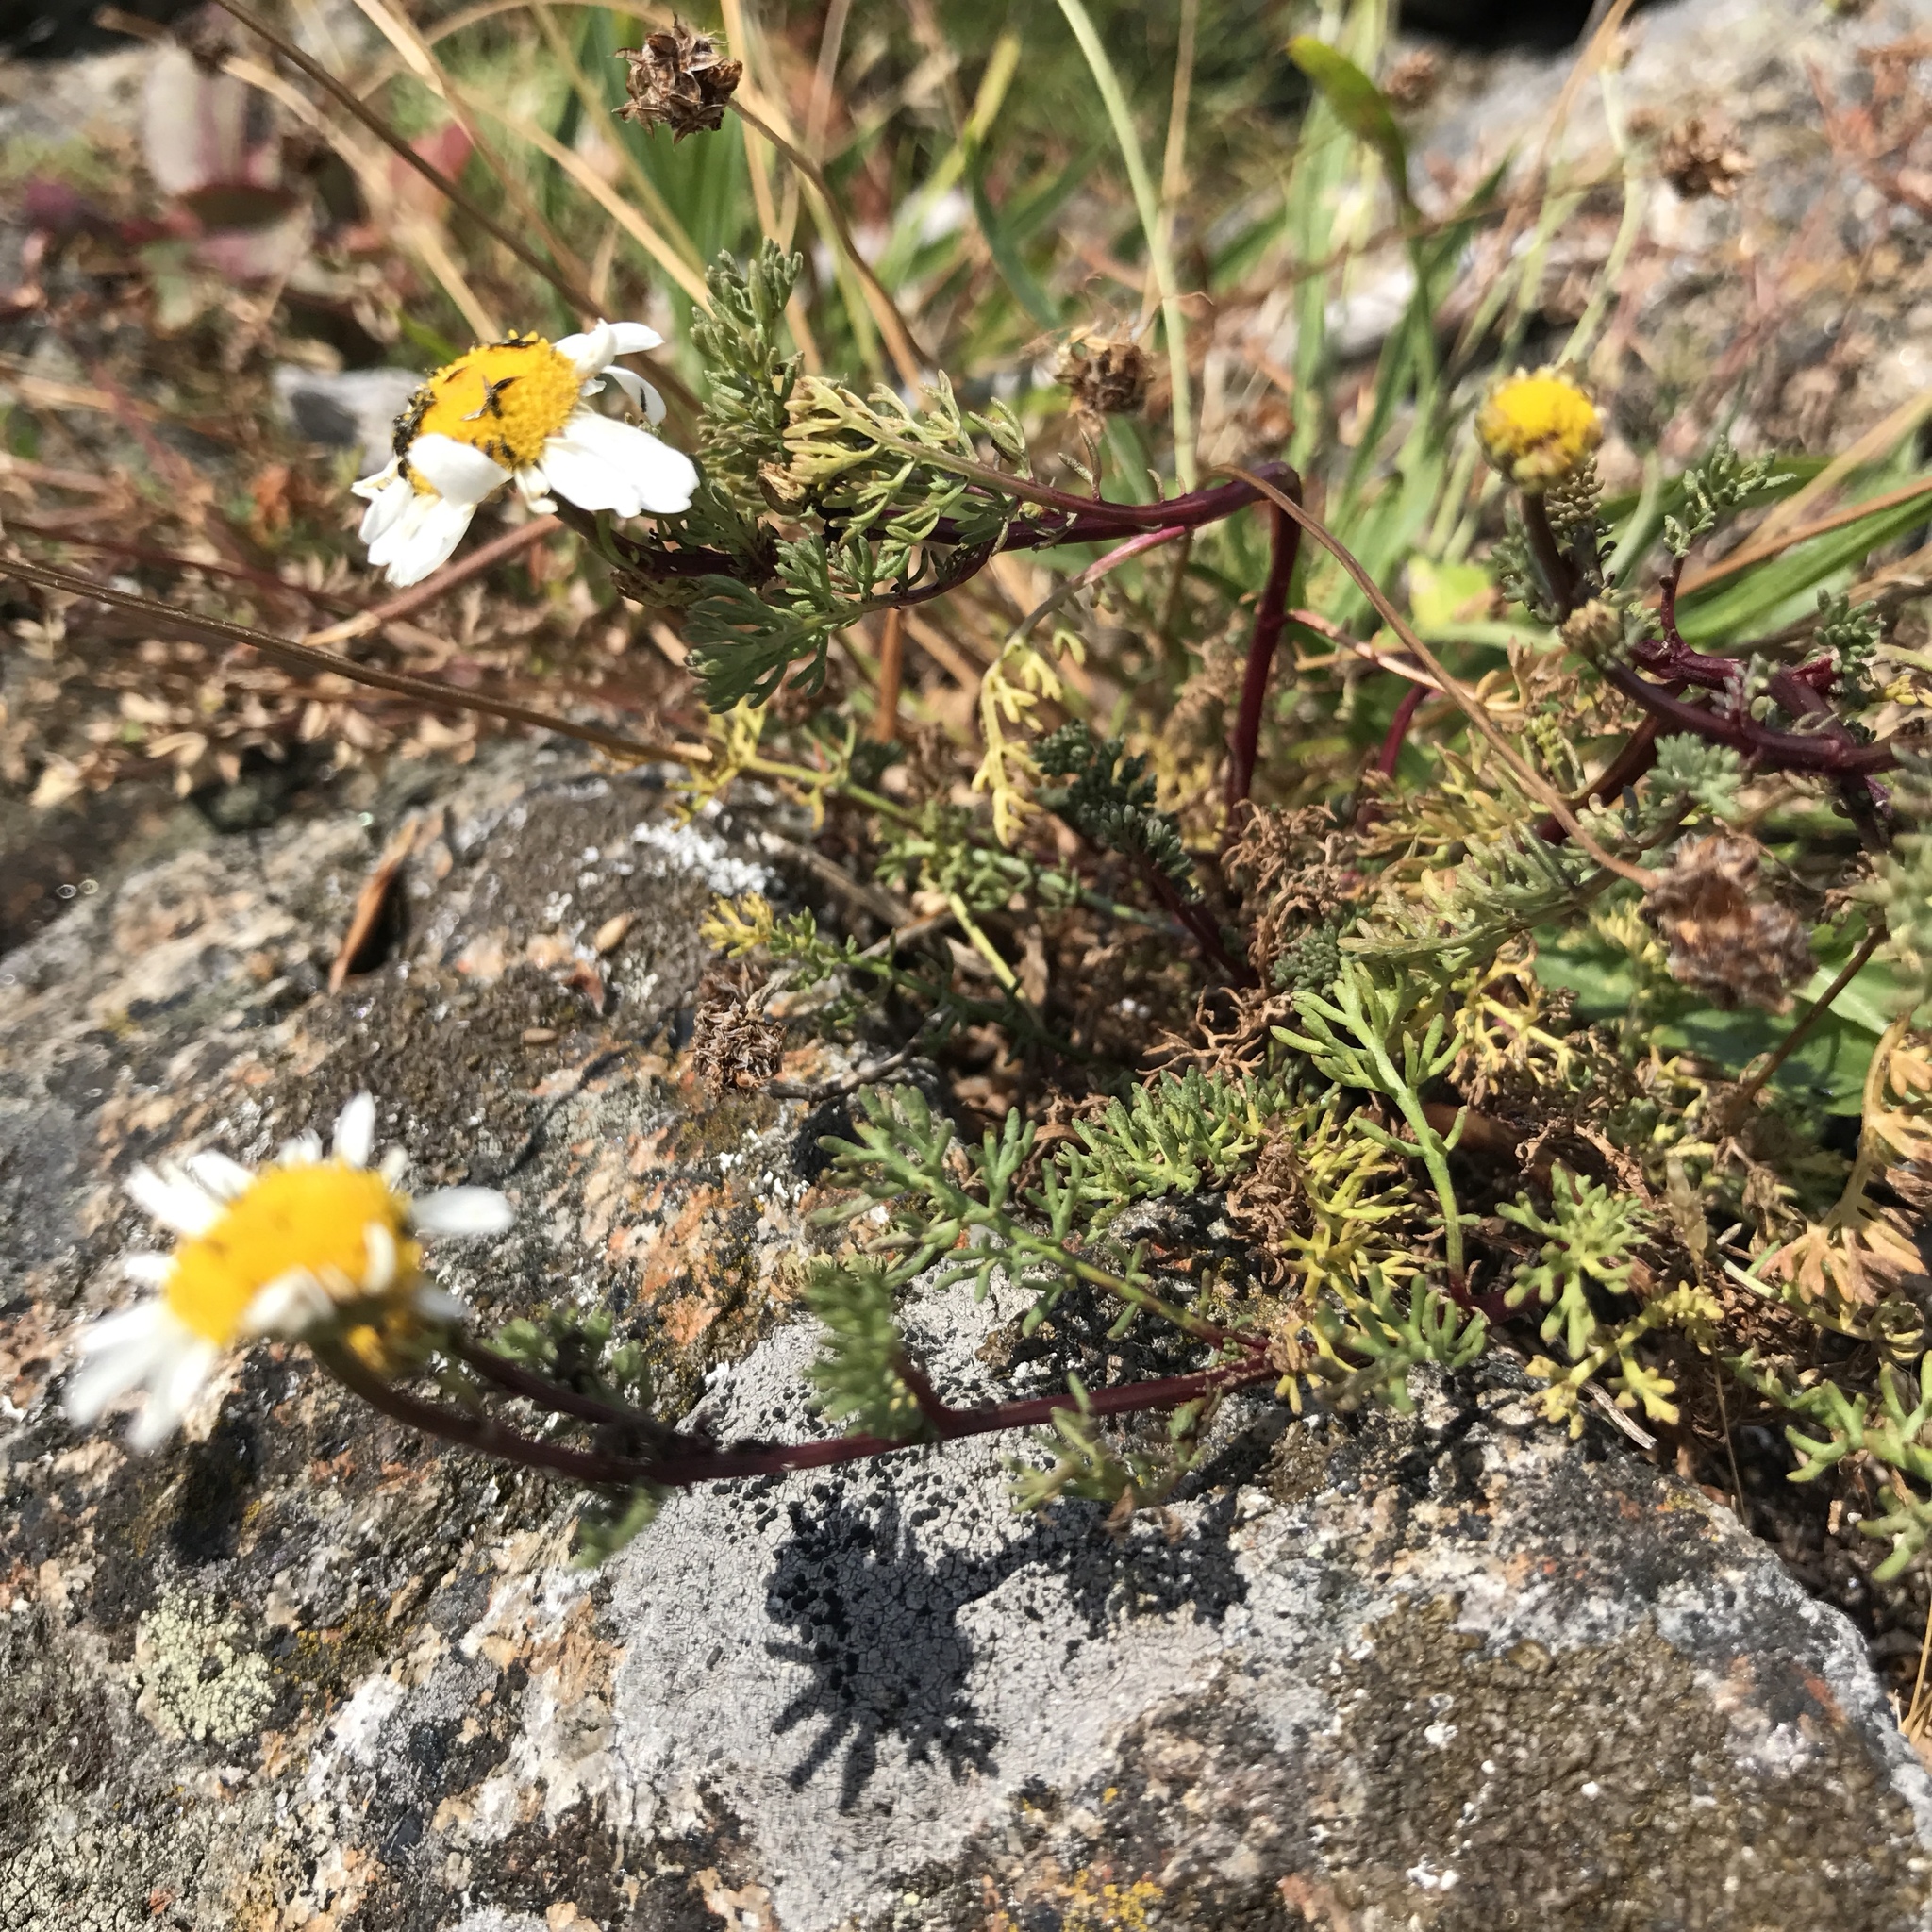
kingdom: Plantae
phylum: Tracheophyta
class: Magnoliopsida
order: Asterales
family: Asteraceae
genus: Tripleurospermum
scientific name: Tripleurospermum maritimum
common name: Sea mayweed
